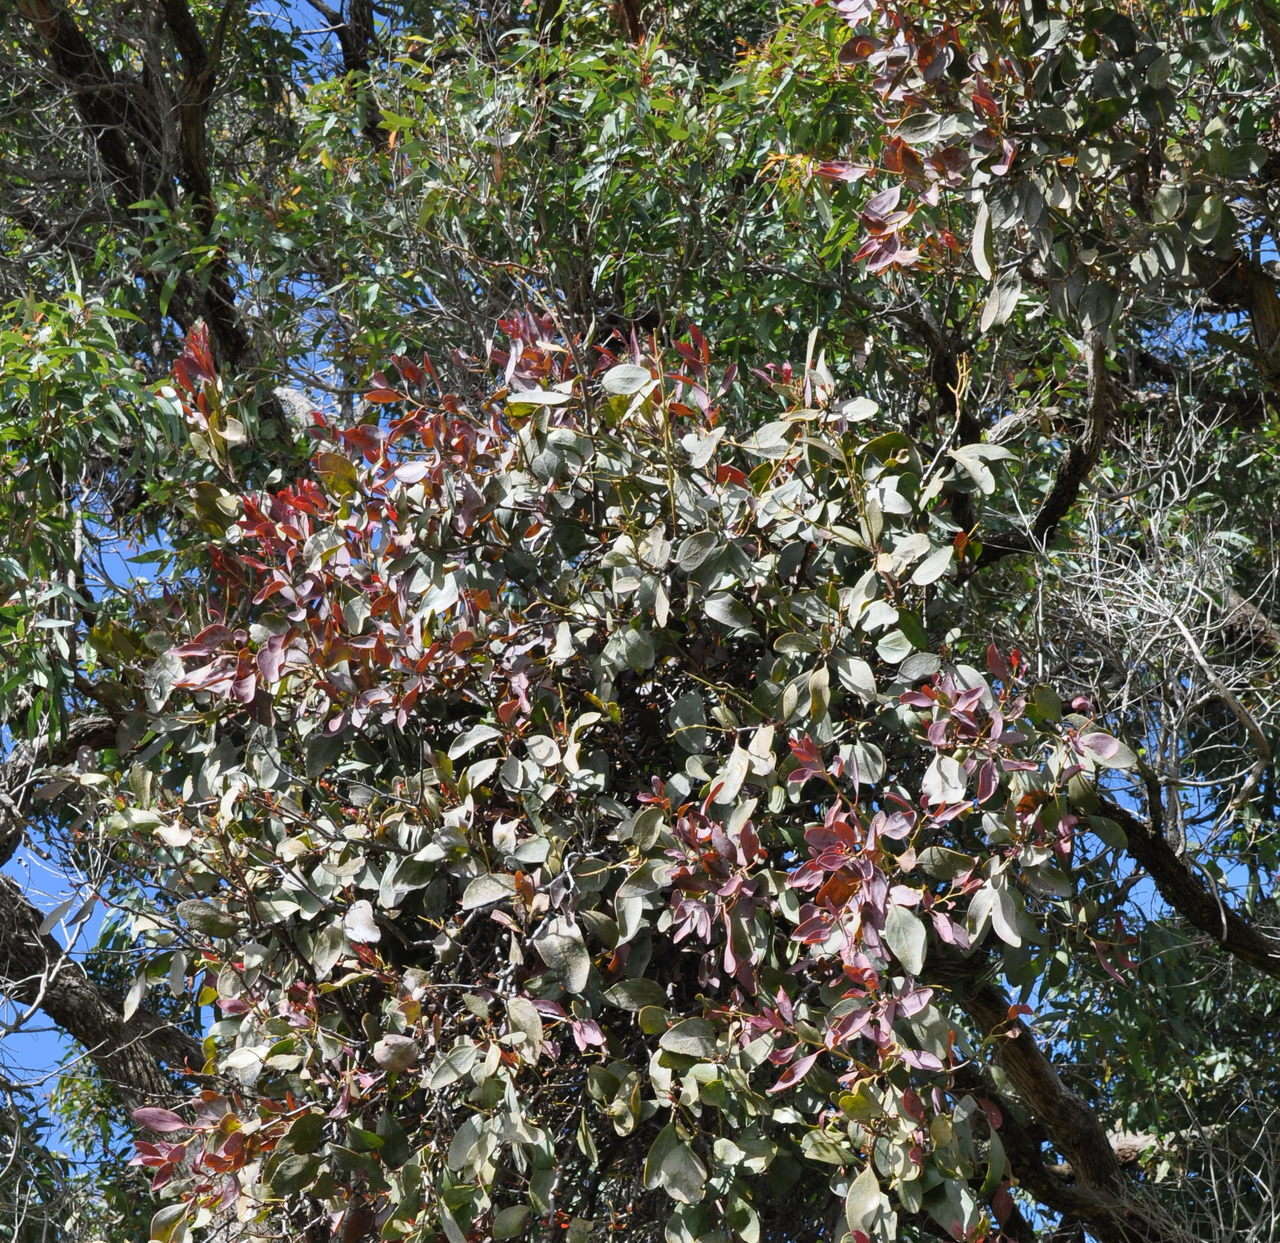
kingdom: Plantae
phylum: Tracheophyta
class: Magnoliopsida
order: Santalales
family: Loranthaceae
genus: Muellerina
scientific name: Muellerina celastroides
